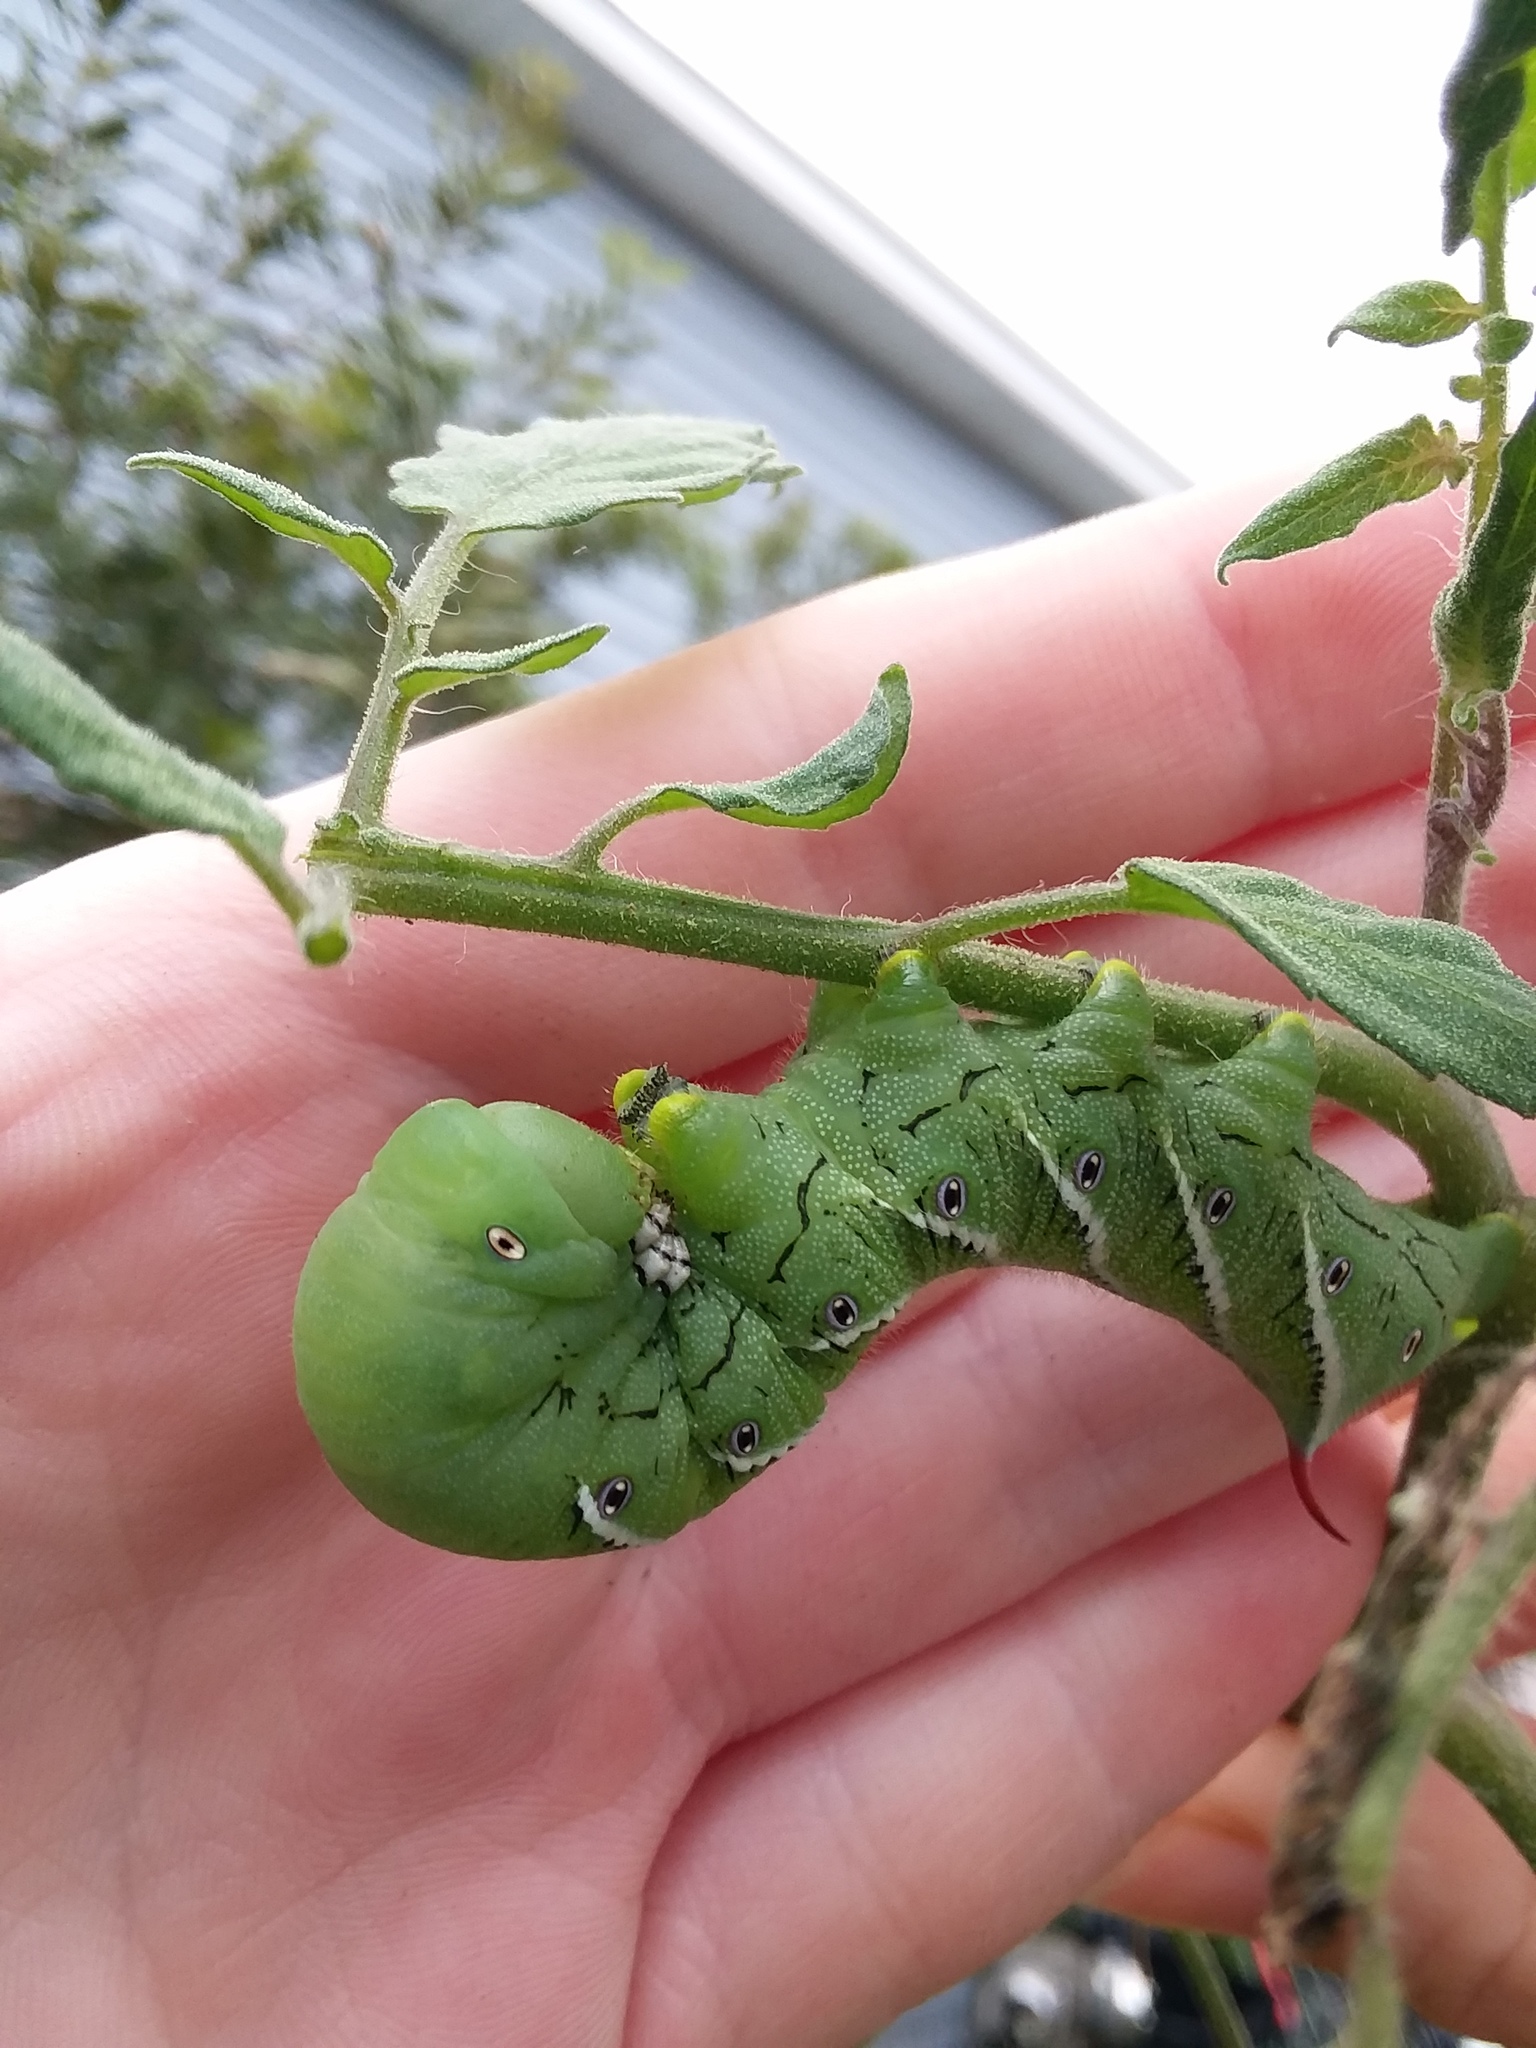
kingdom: Animalia
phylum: Arthropoda
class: Insecta
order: Lepidoptera
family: Sphingidae
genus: Manduca
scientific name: Manduca sexta
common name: Carolina sphinx
